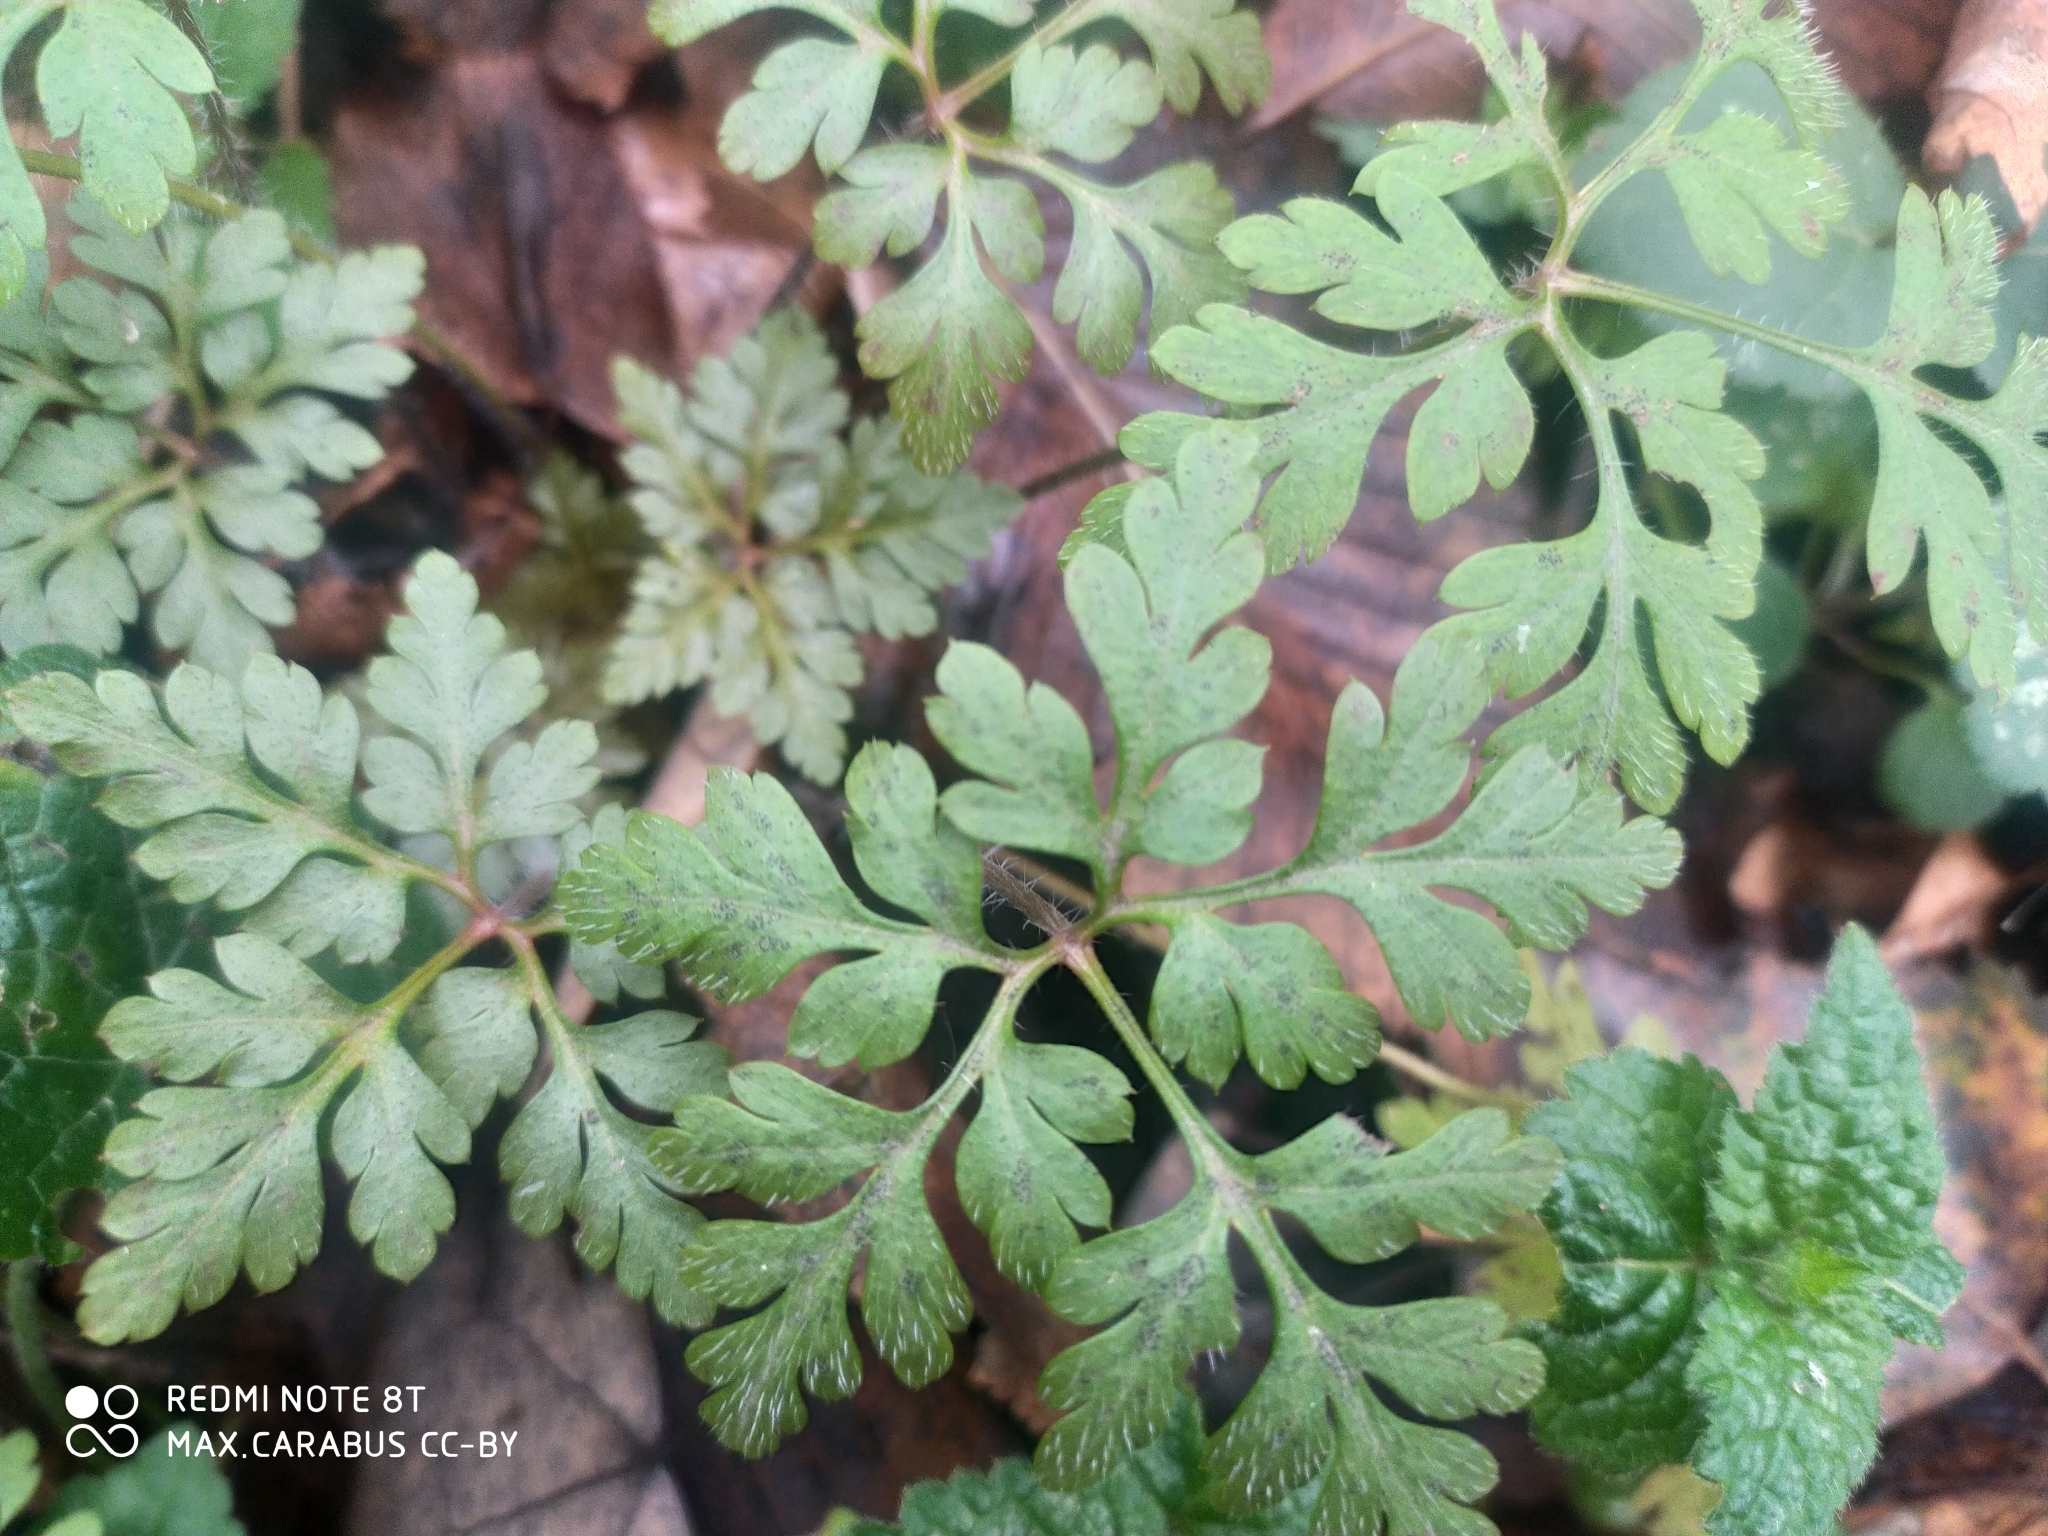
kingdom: Plantae
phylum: Tracheophyta
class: Magnoliopsida
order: Geraniales
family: Geraniaceae
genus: Geranium
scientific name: Geranium robertianum
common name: Herb-robert
